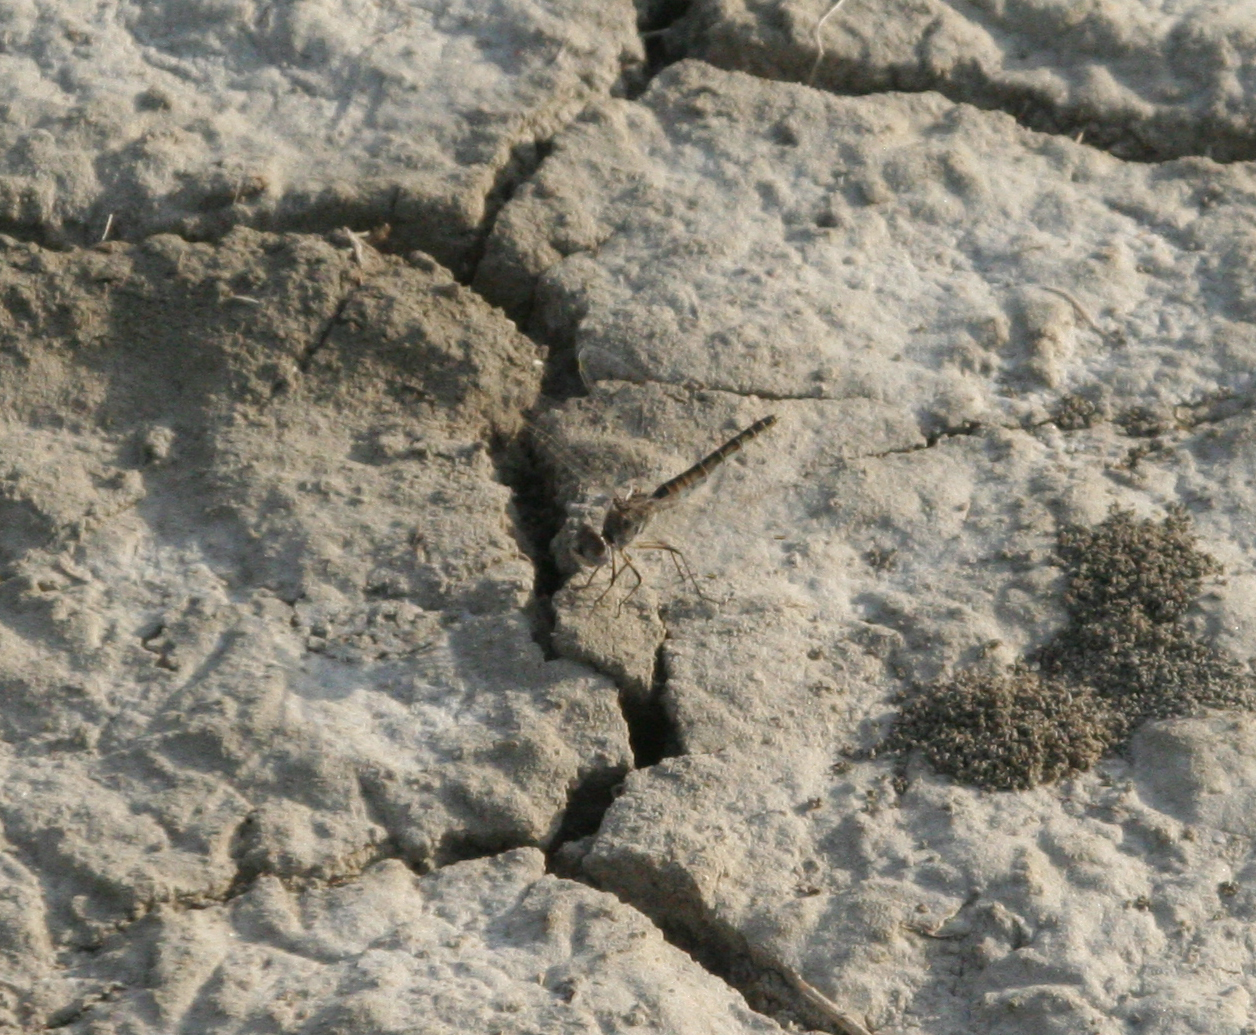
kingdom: Animalia
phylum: Arthropoda
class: Insecta
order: Odonata
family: Libellulidae
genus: Selysiothemis
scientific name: Selysiothemis nigra
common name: Black pennant
